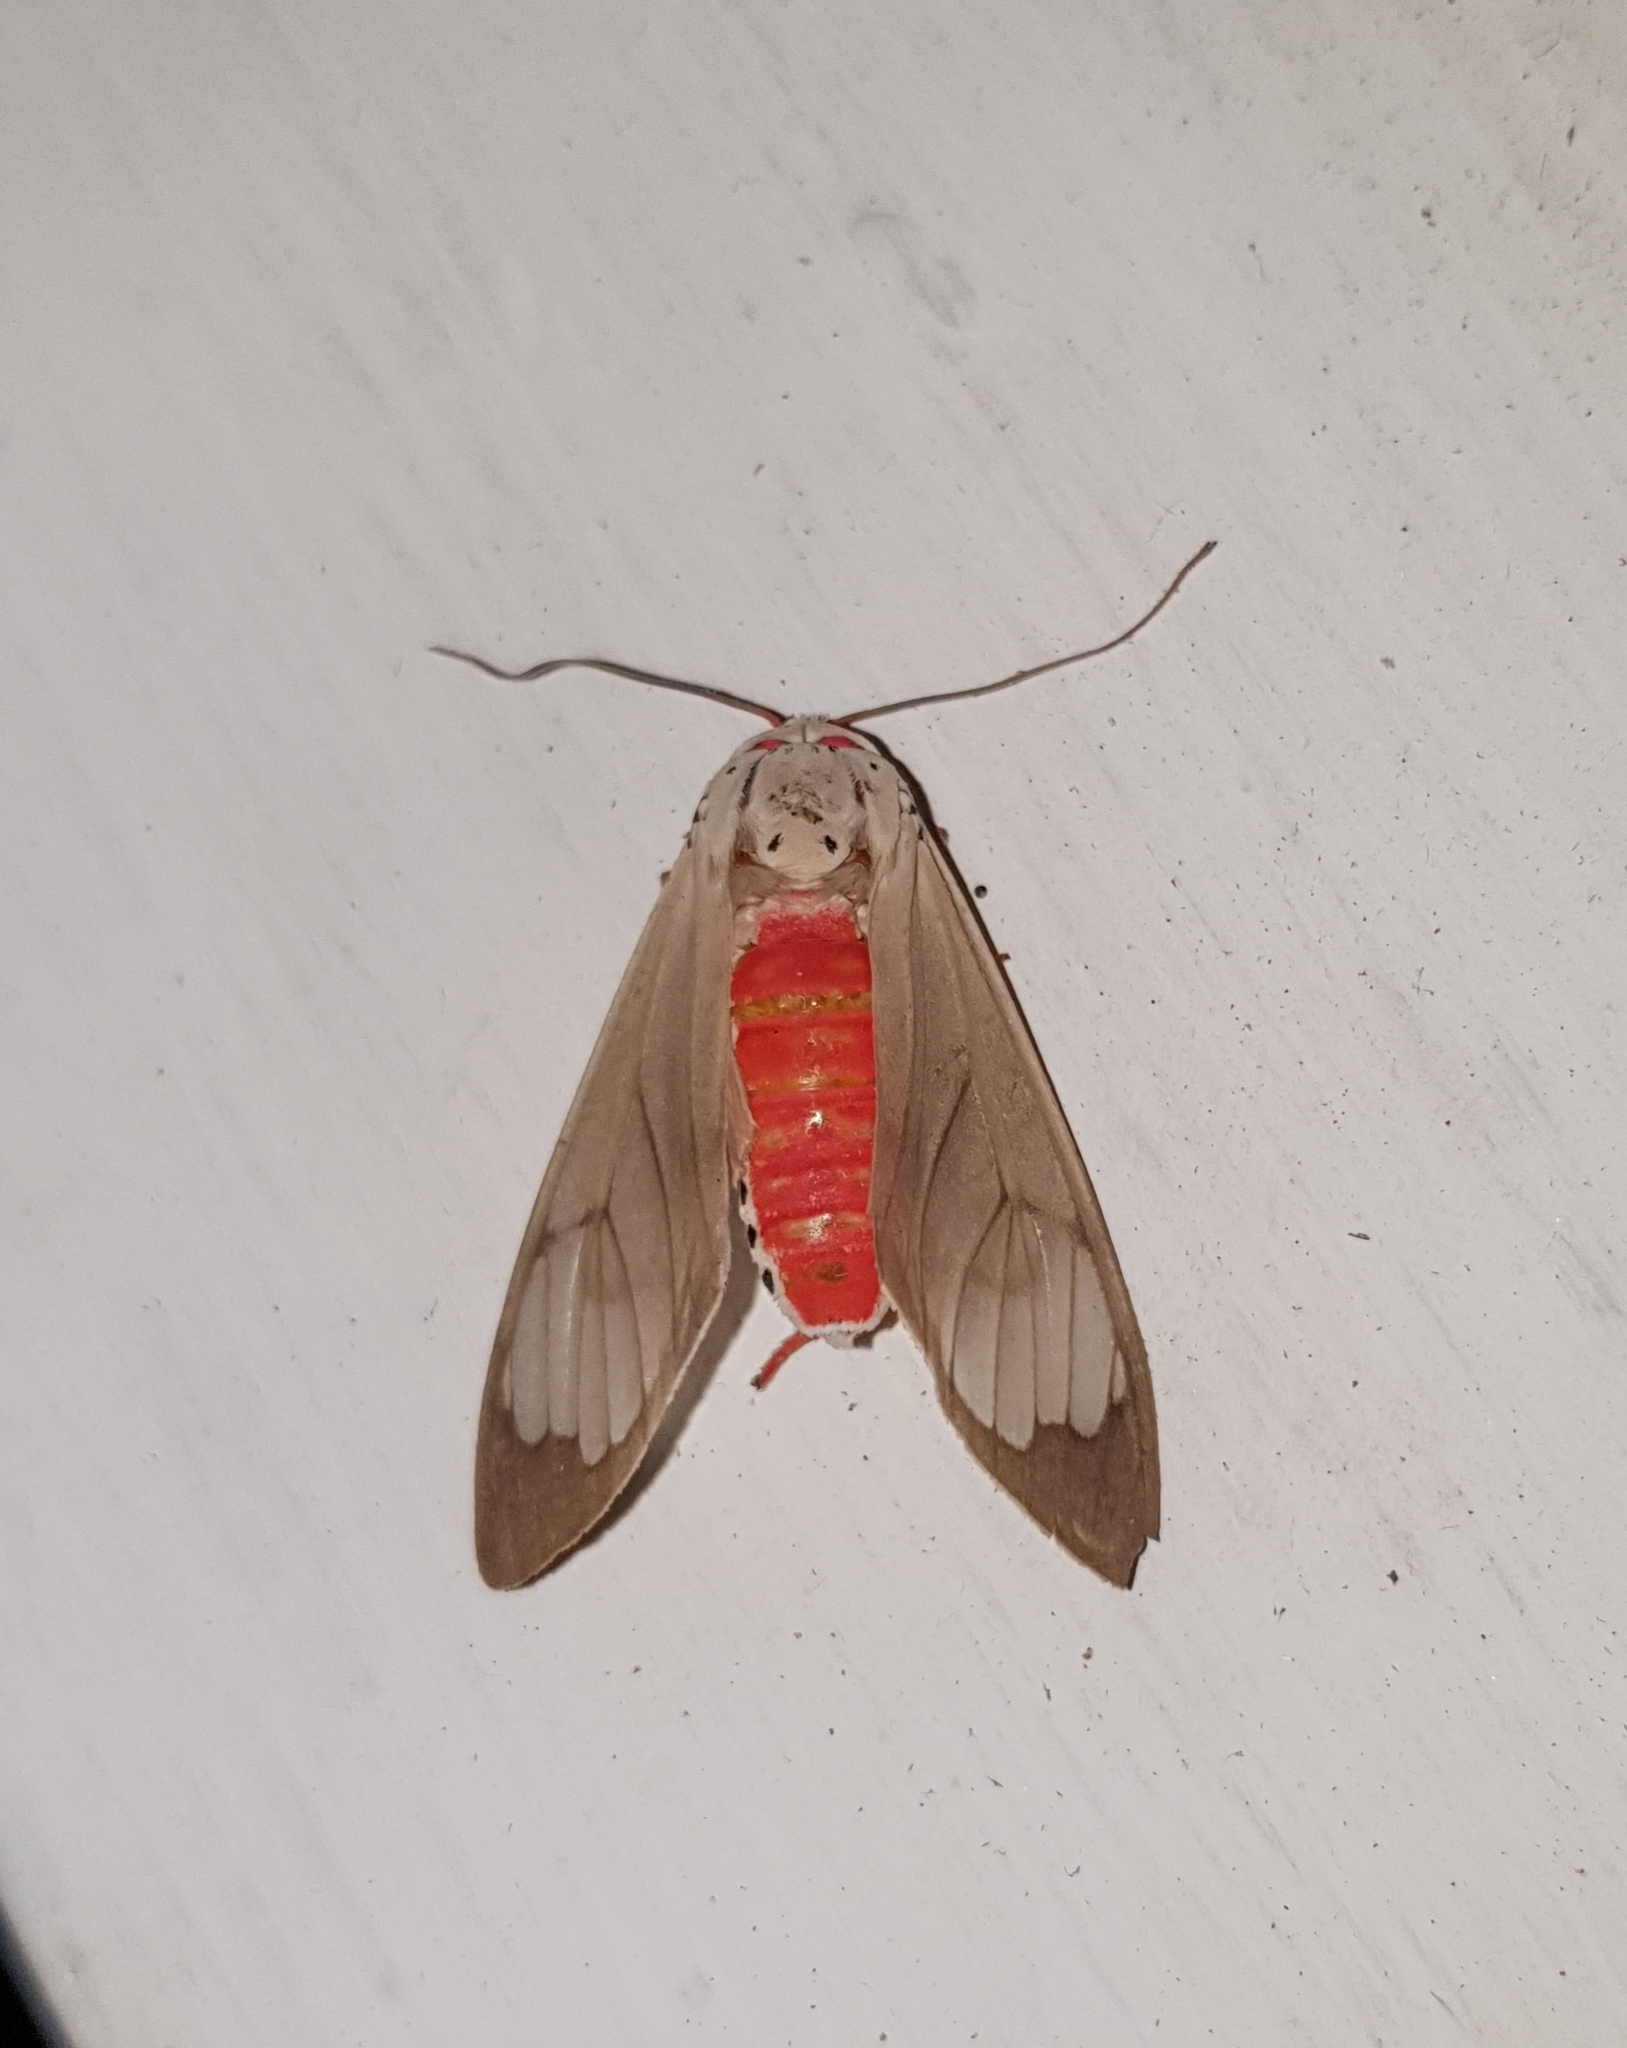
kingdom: Animalia
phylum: Arthropoda
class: Insecta
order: Lepidoptera
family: Erebidae
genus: Amerila
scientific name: Amerila astreus
